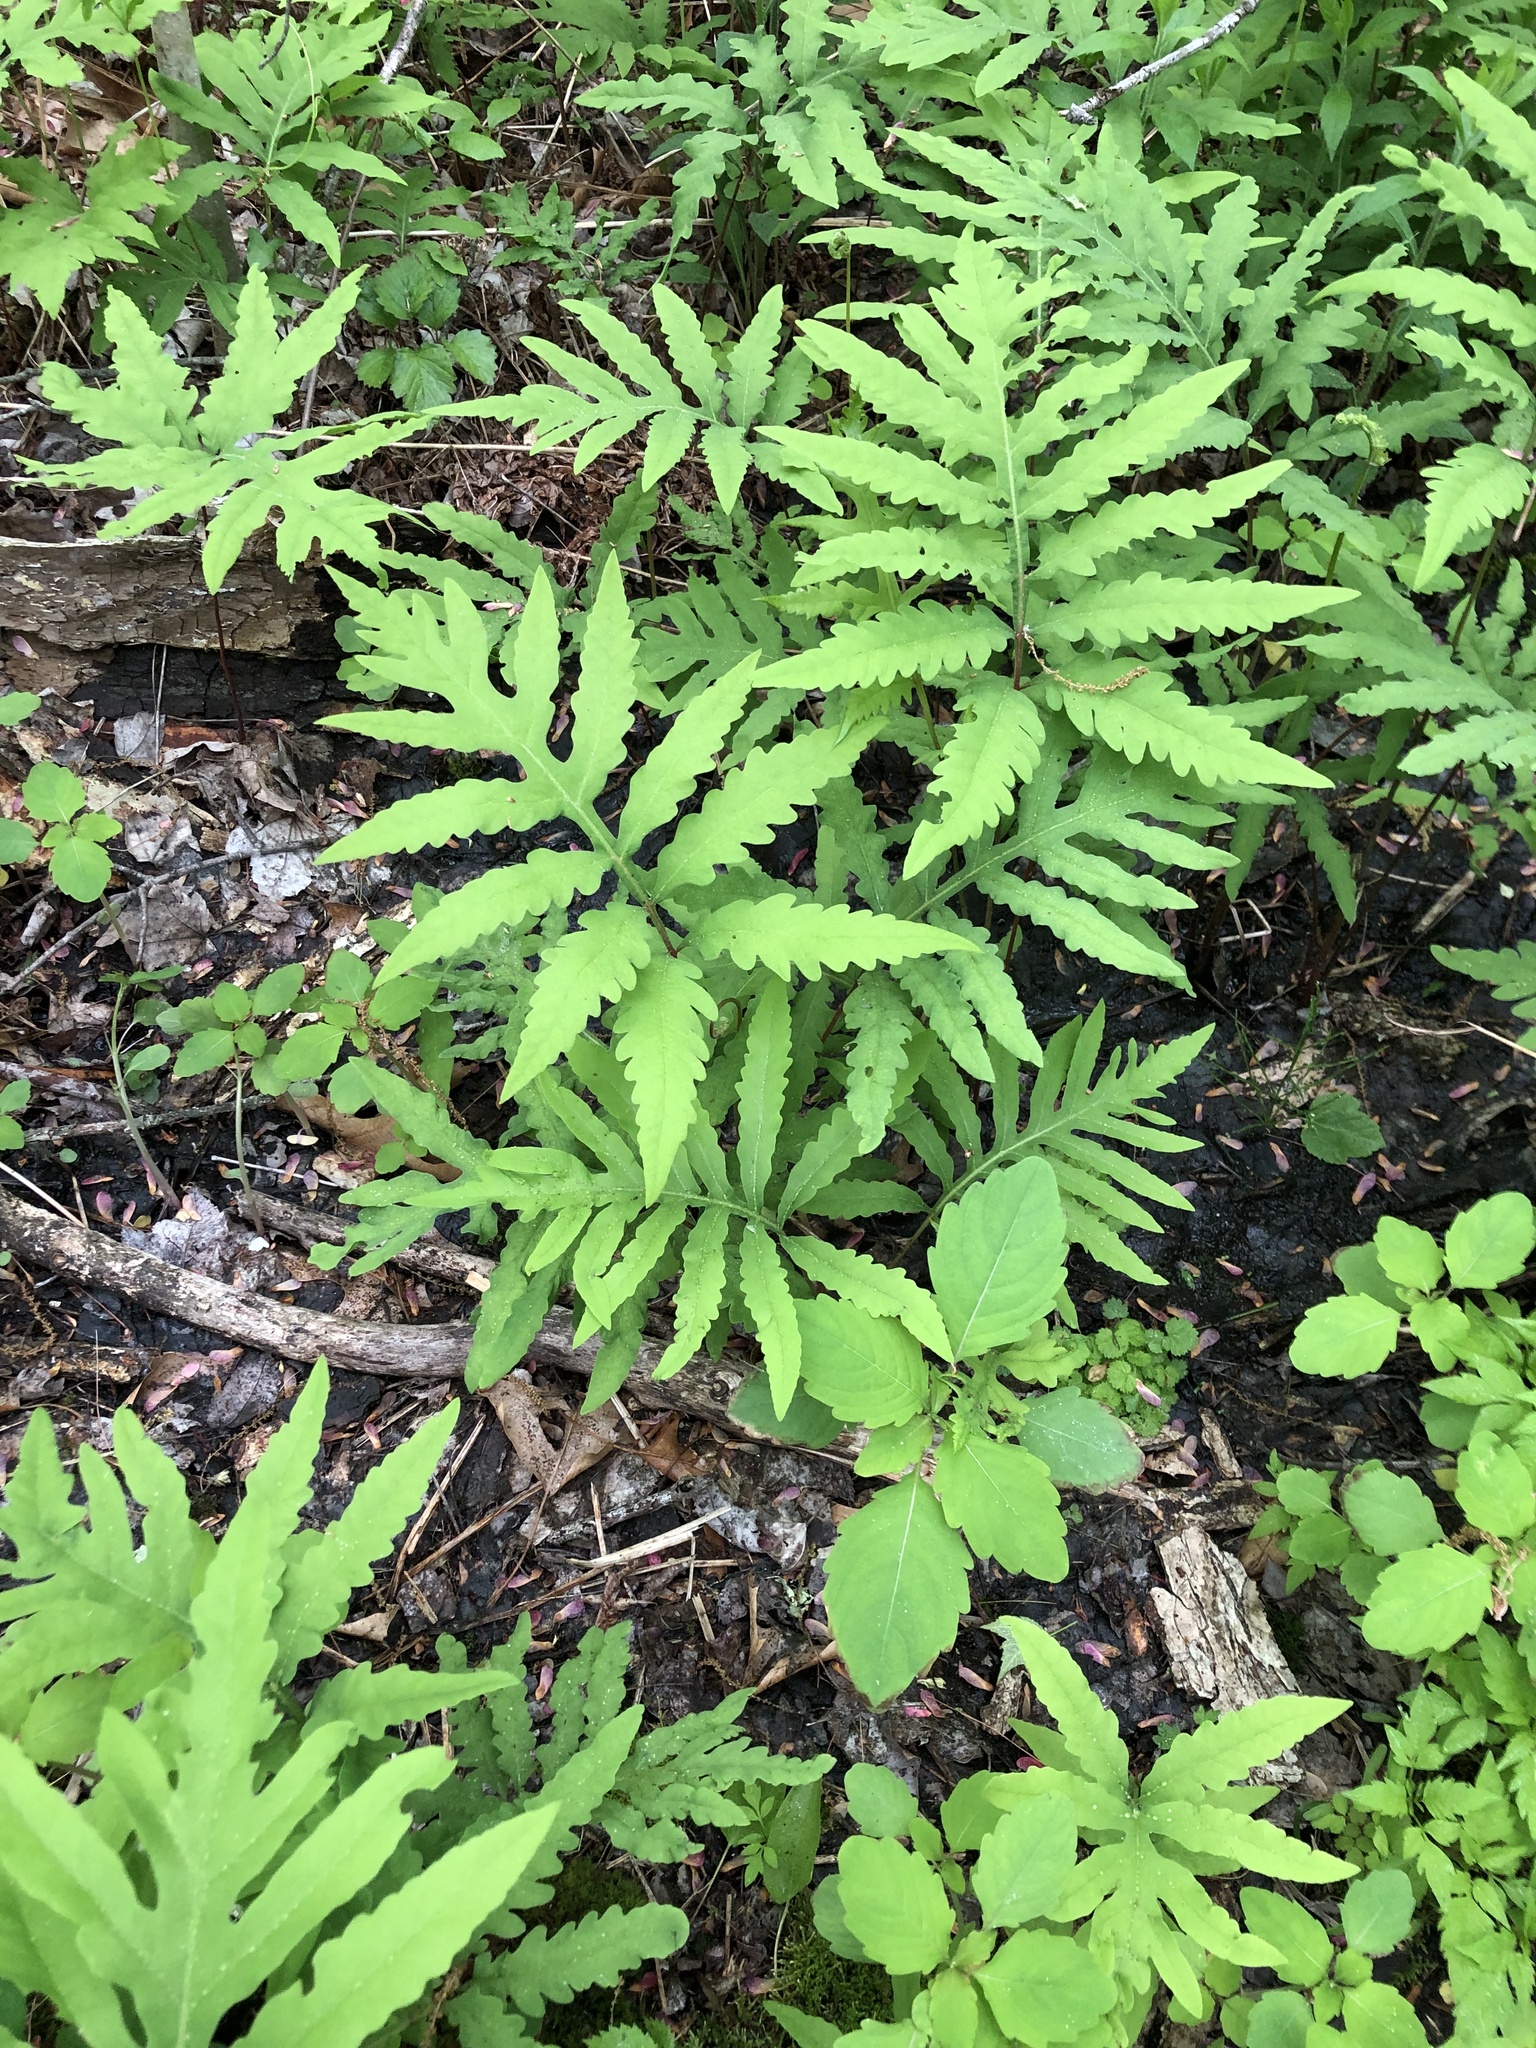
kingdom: Plantae
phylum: Tracheophyta
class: Polypodiopsida
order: Polypodiales
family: Onocleaceae
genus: Onoclea
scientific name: Onoclea sensibilis
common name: Sensitive fern
